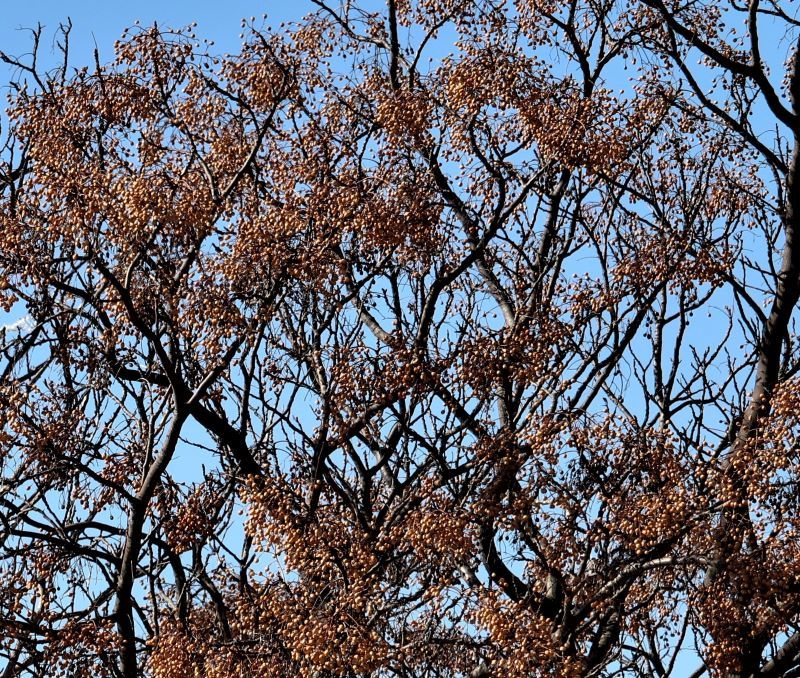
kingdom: Plantae
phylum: Tracheophyta
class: Magnoliopsida
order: Sapindales
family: Meliaceae
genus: Melia
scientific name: Melia azedarach
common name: Chinaberrytree
